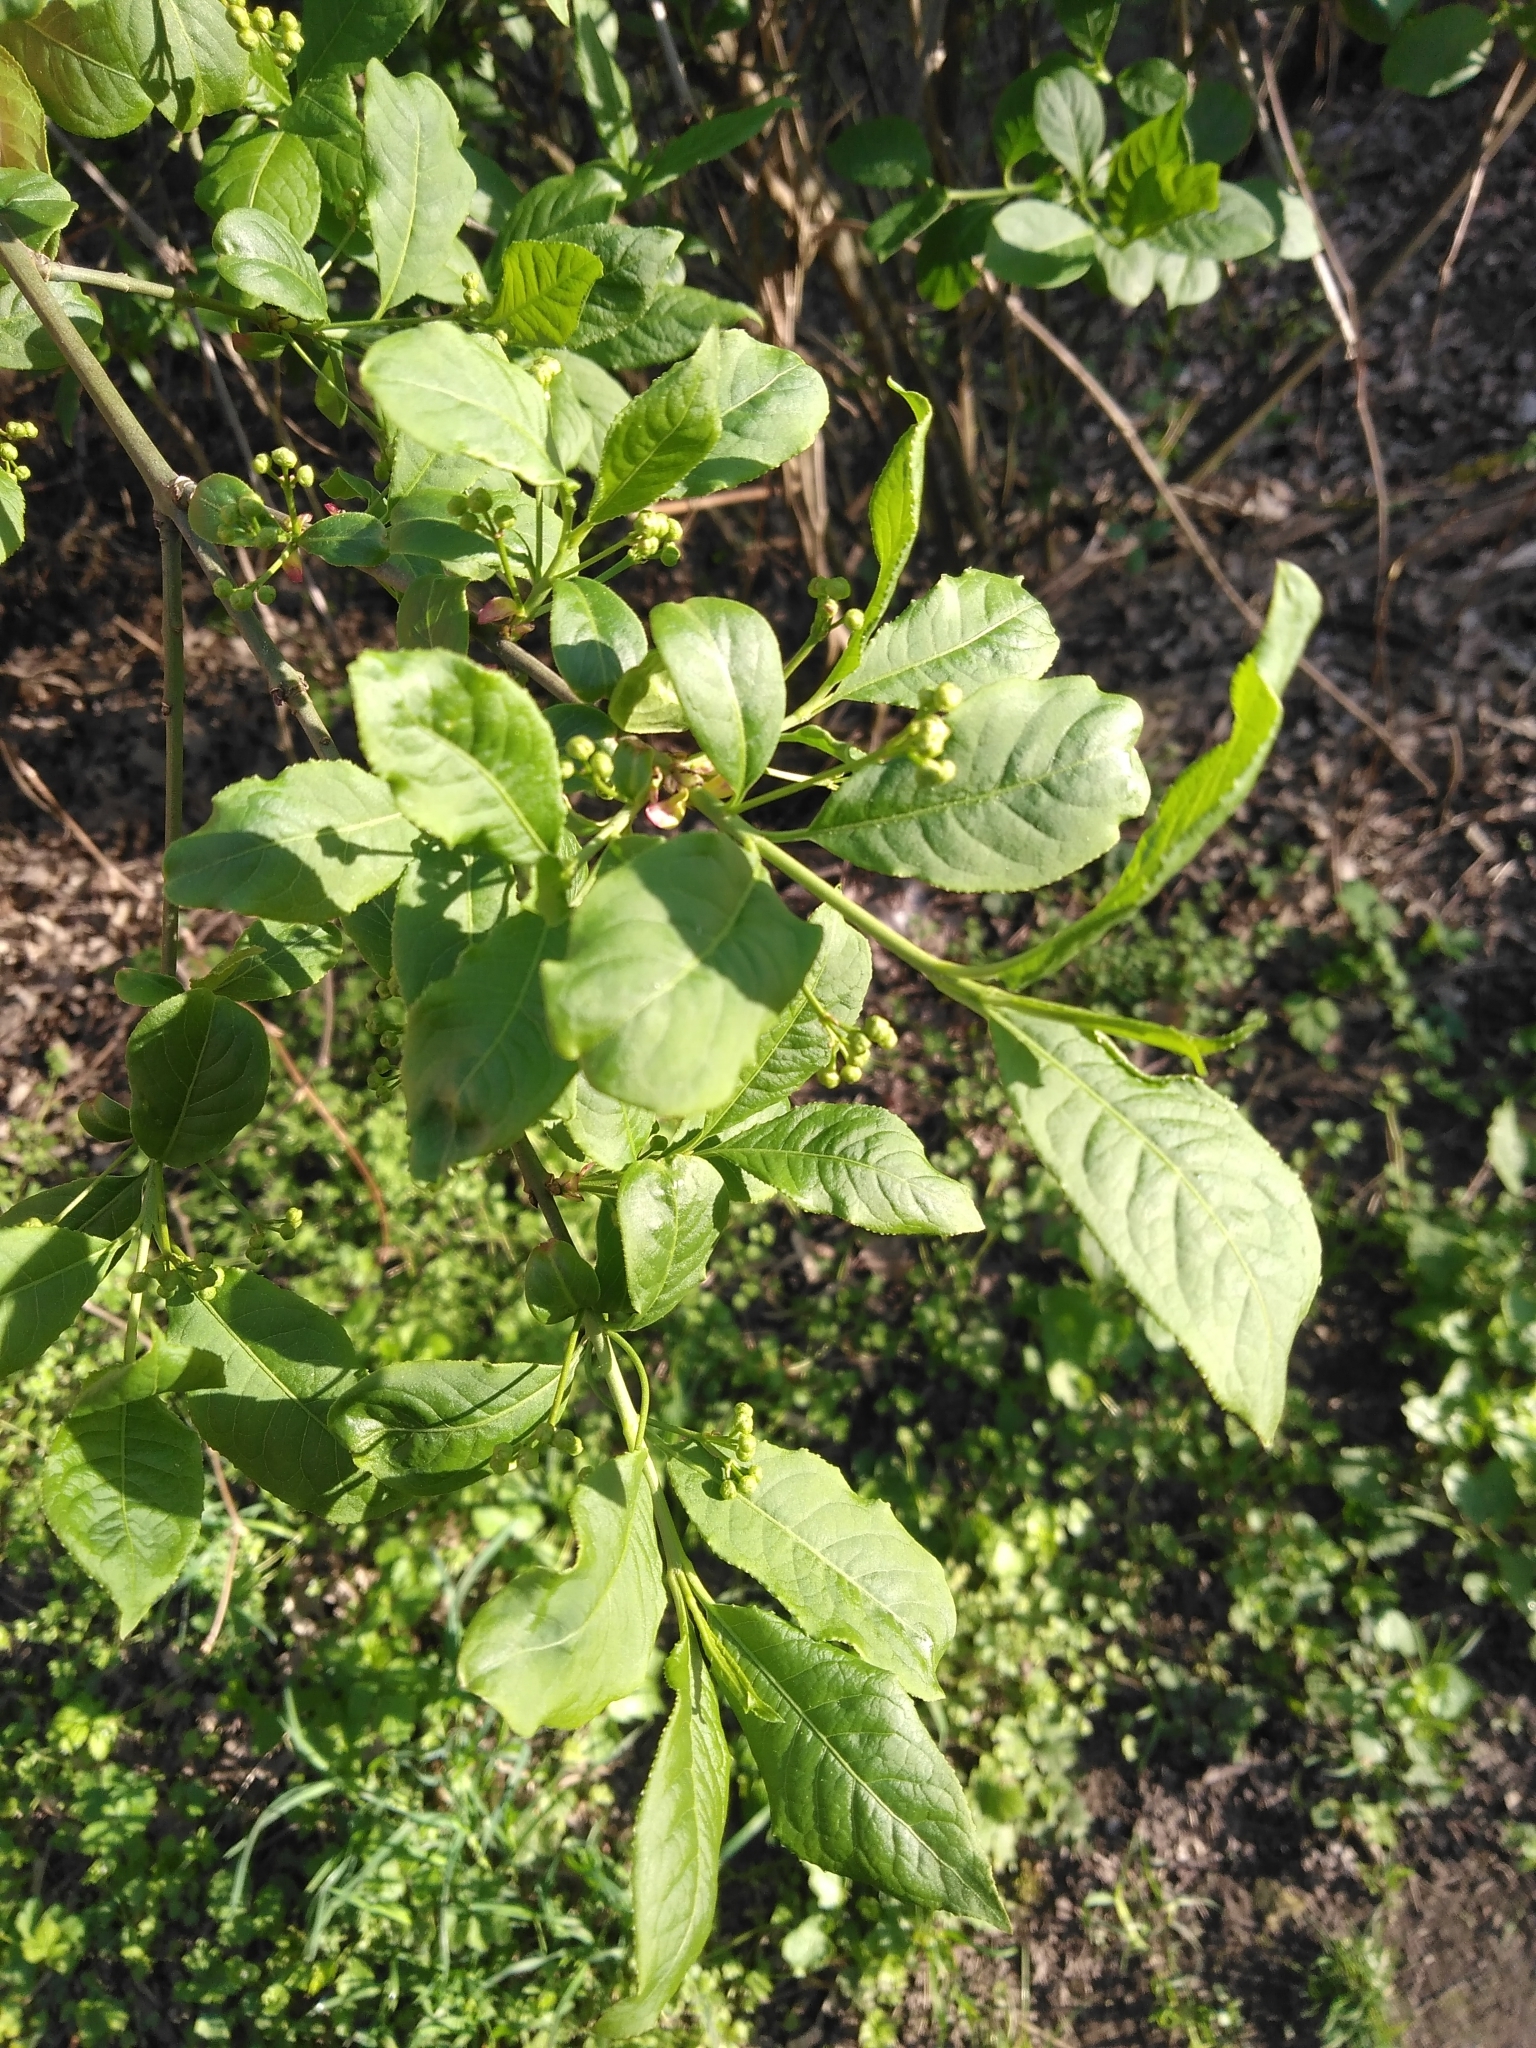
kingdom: Plantae
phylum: Tracheophyta
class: Magnoliopsida
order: Celastrales
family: Celastraceae
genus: Euonymus
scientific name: Euonymus europaeus
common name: Spindle
